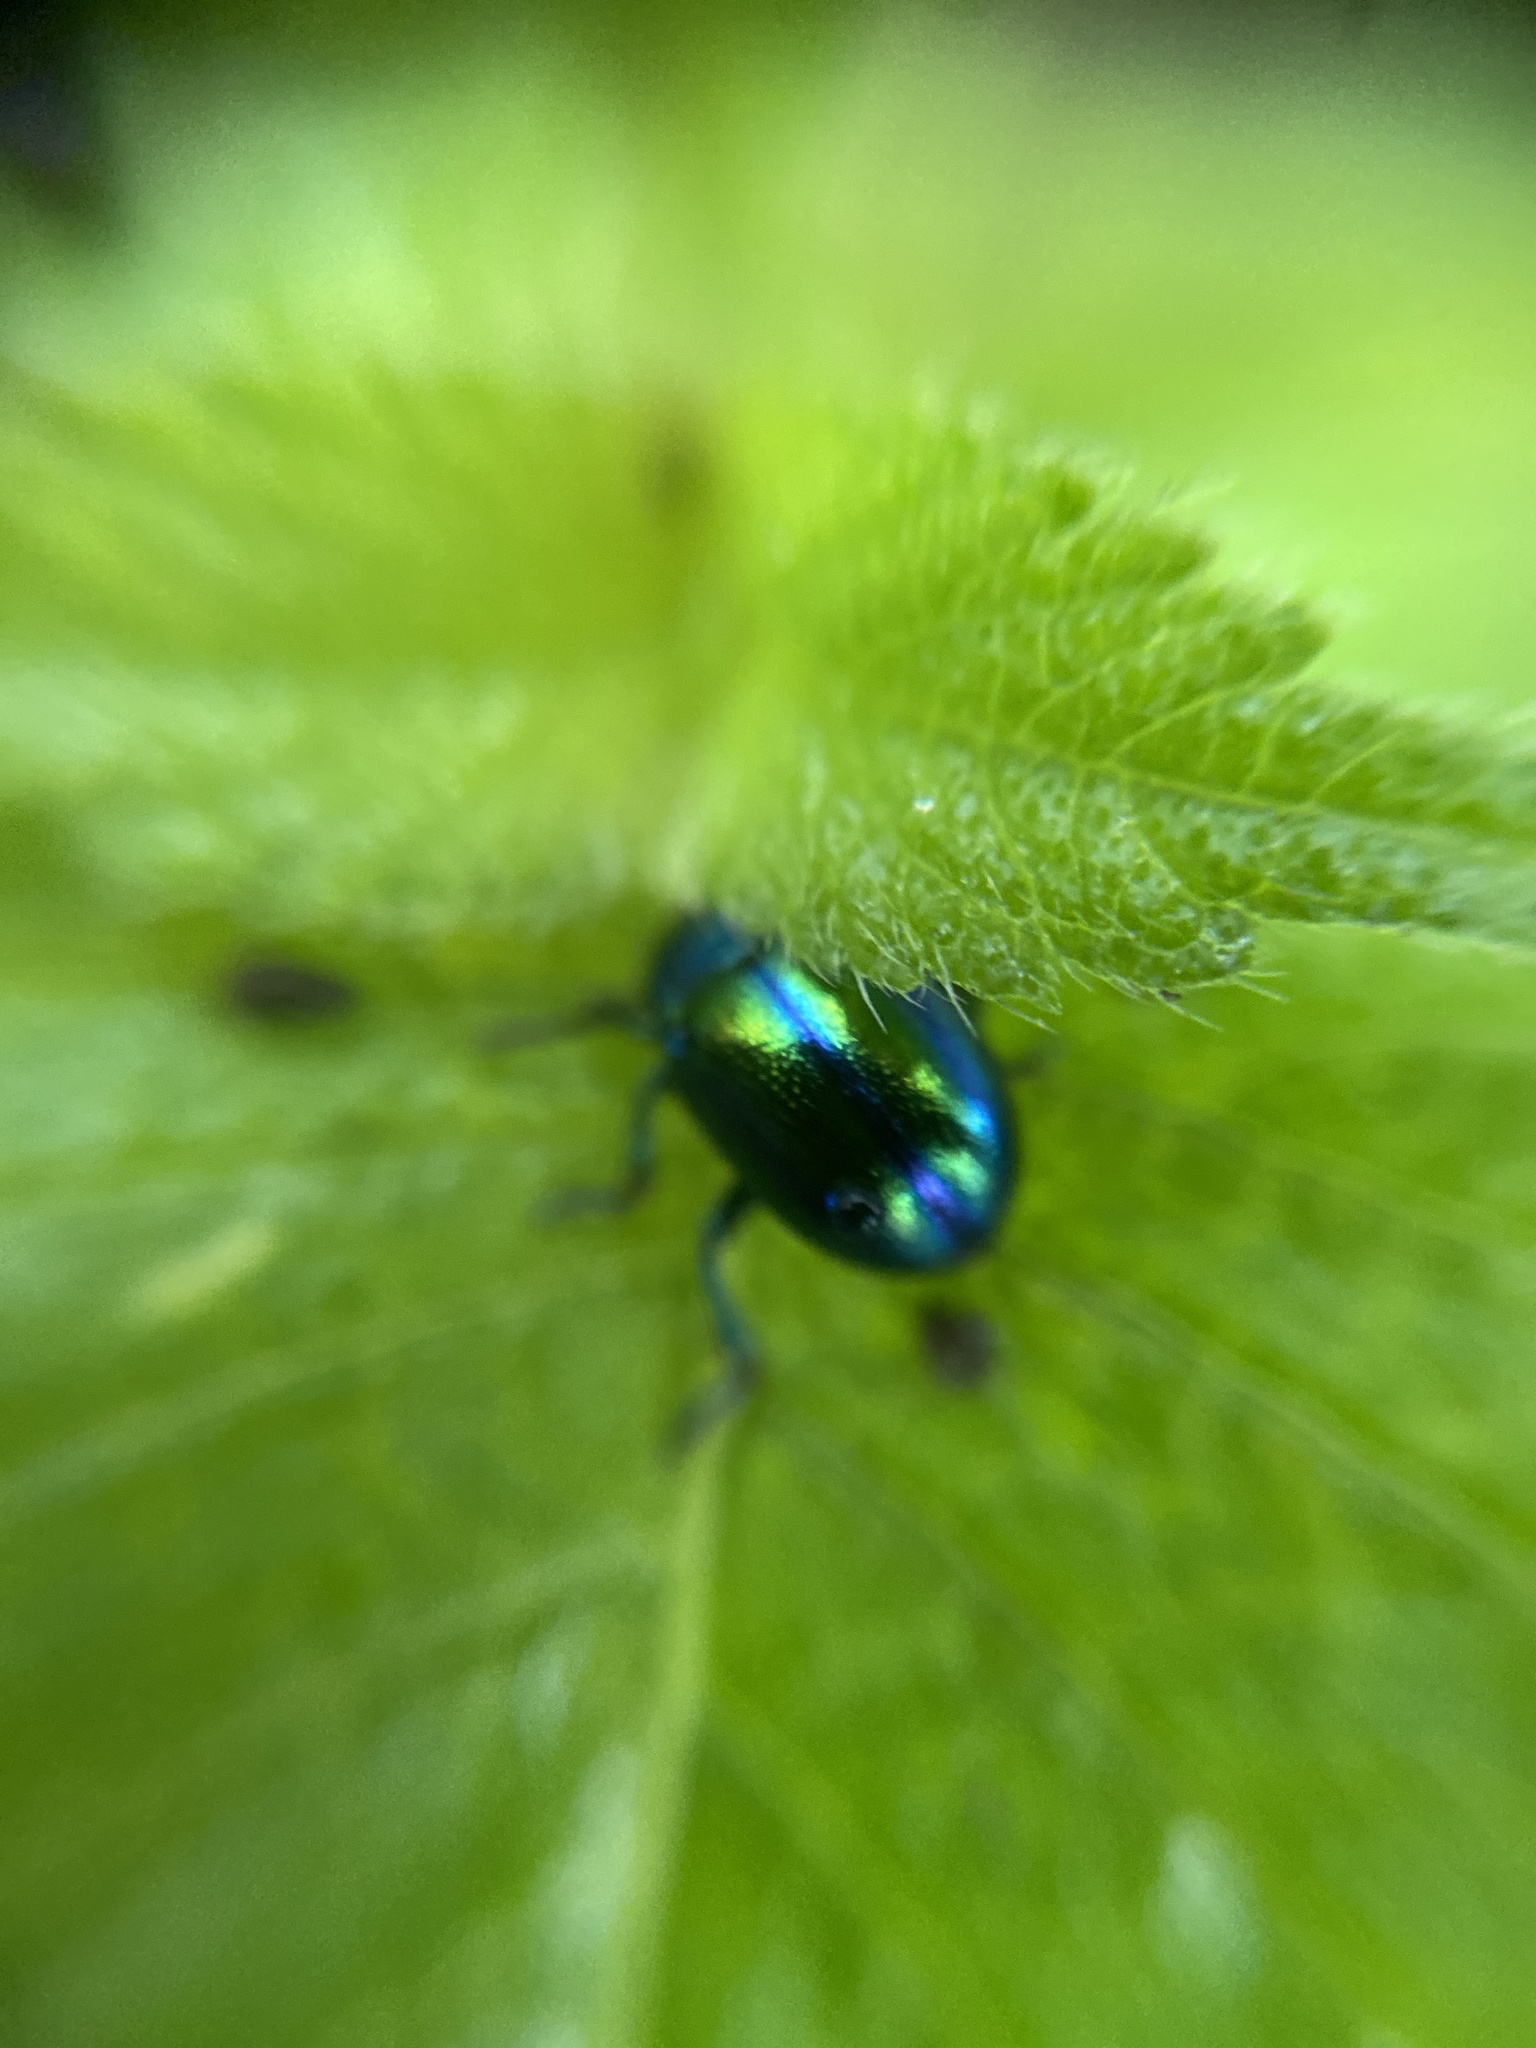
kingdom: Animalia
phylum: Arthropoda
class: Insecta
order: Coleoptera
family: Chrysomelidae
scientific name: Chrysomelidae
